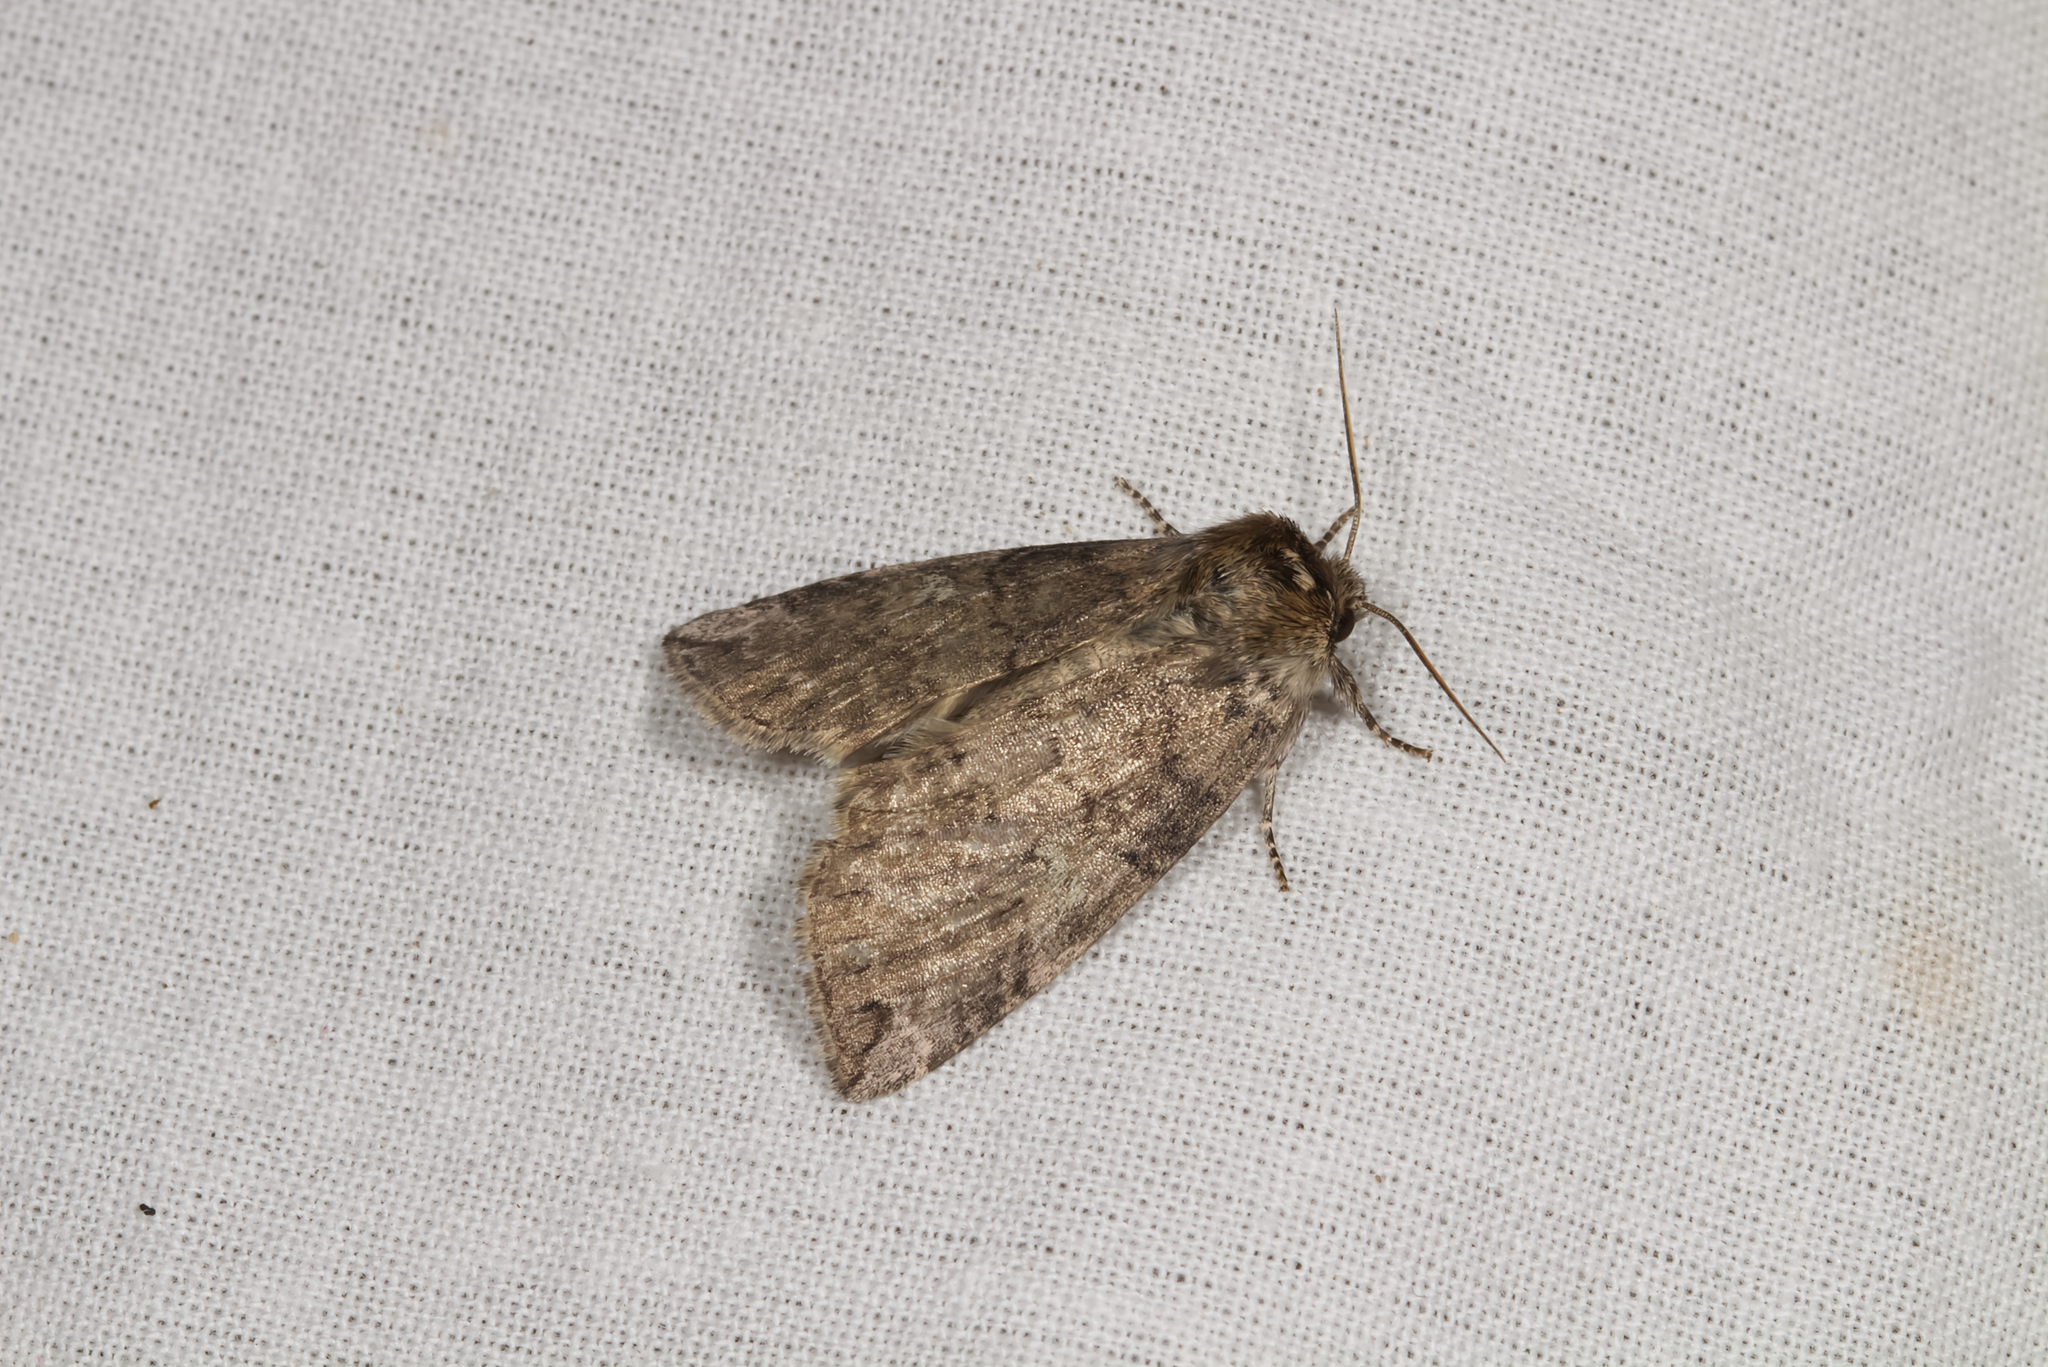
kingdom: Animalia
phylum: Arthropoda
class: Insecta
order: Lepidoptera
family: Drepanidae
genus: Tethea
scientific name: Tethea or
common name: Poplar lutestring
